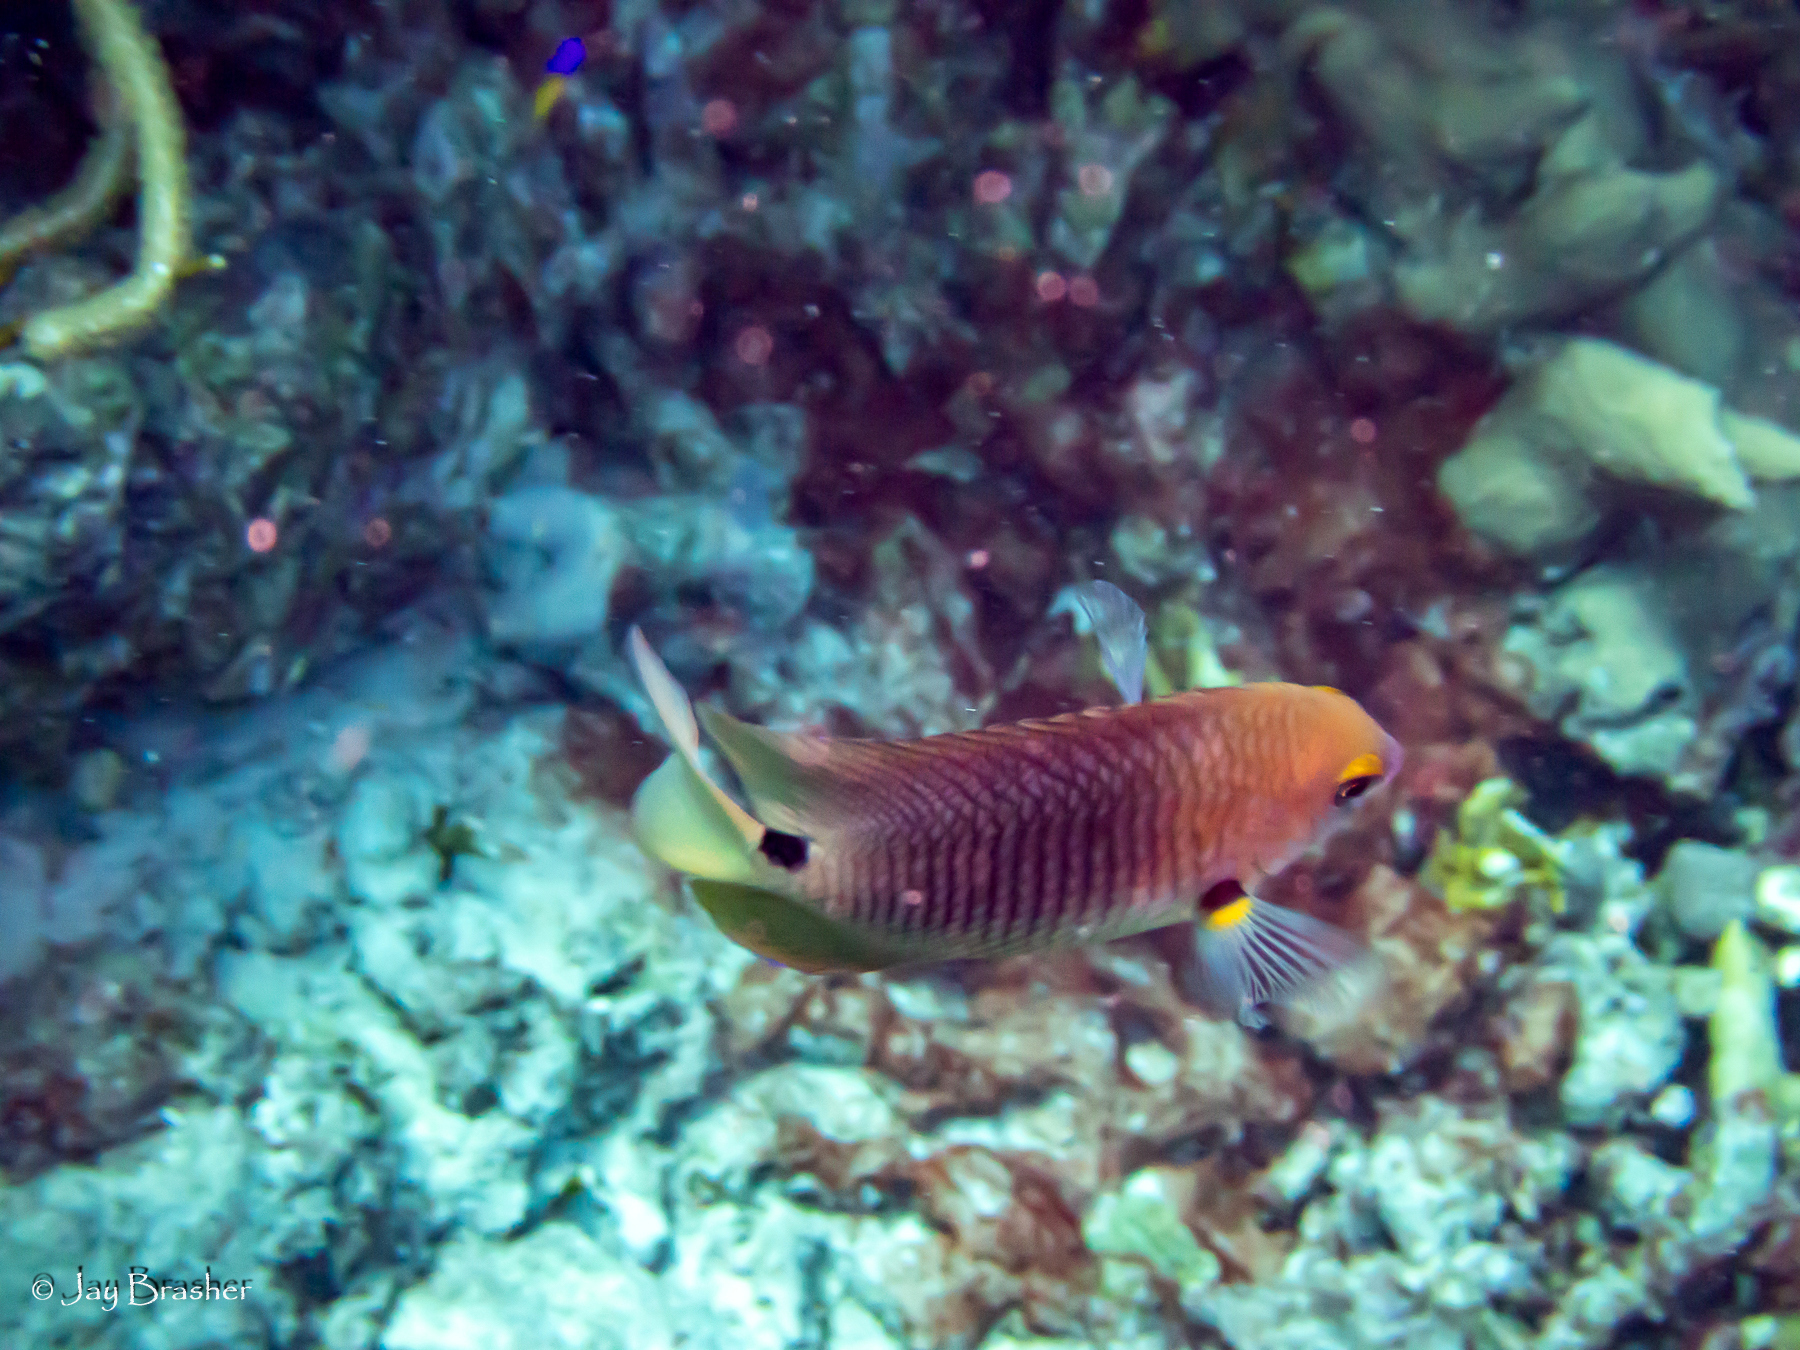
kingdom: Animalia
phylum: Chordata
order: Perciformes
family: Pomacentridae
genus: Stegastes
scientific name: Stegastes planifrons
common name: Threespot damselfish
